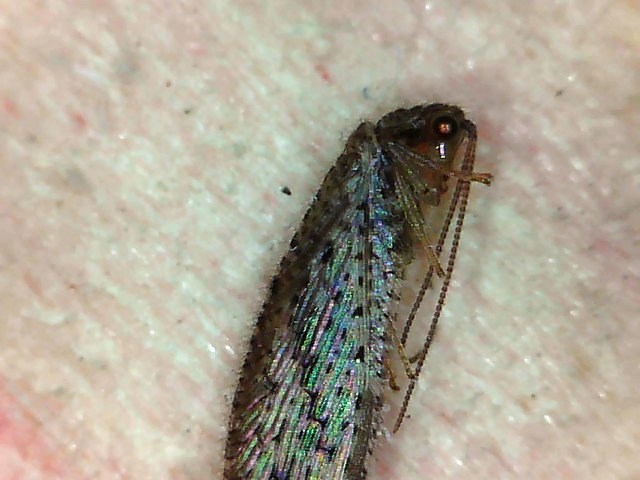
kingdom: Animalia
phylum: Arthropoda
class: Insecta
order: Neuroptera
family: Hemerobiidae
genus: Micromus
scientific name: Micromus tasmaniae
